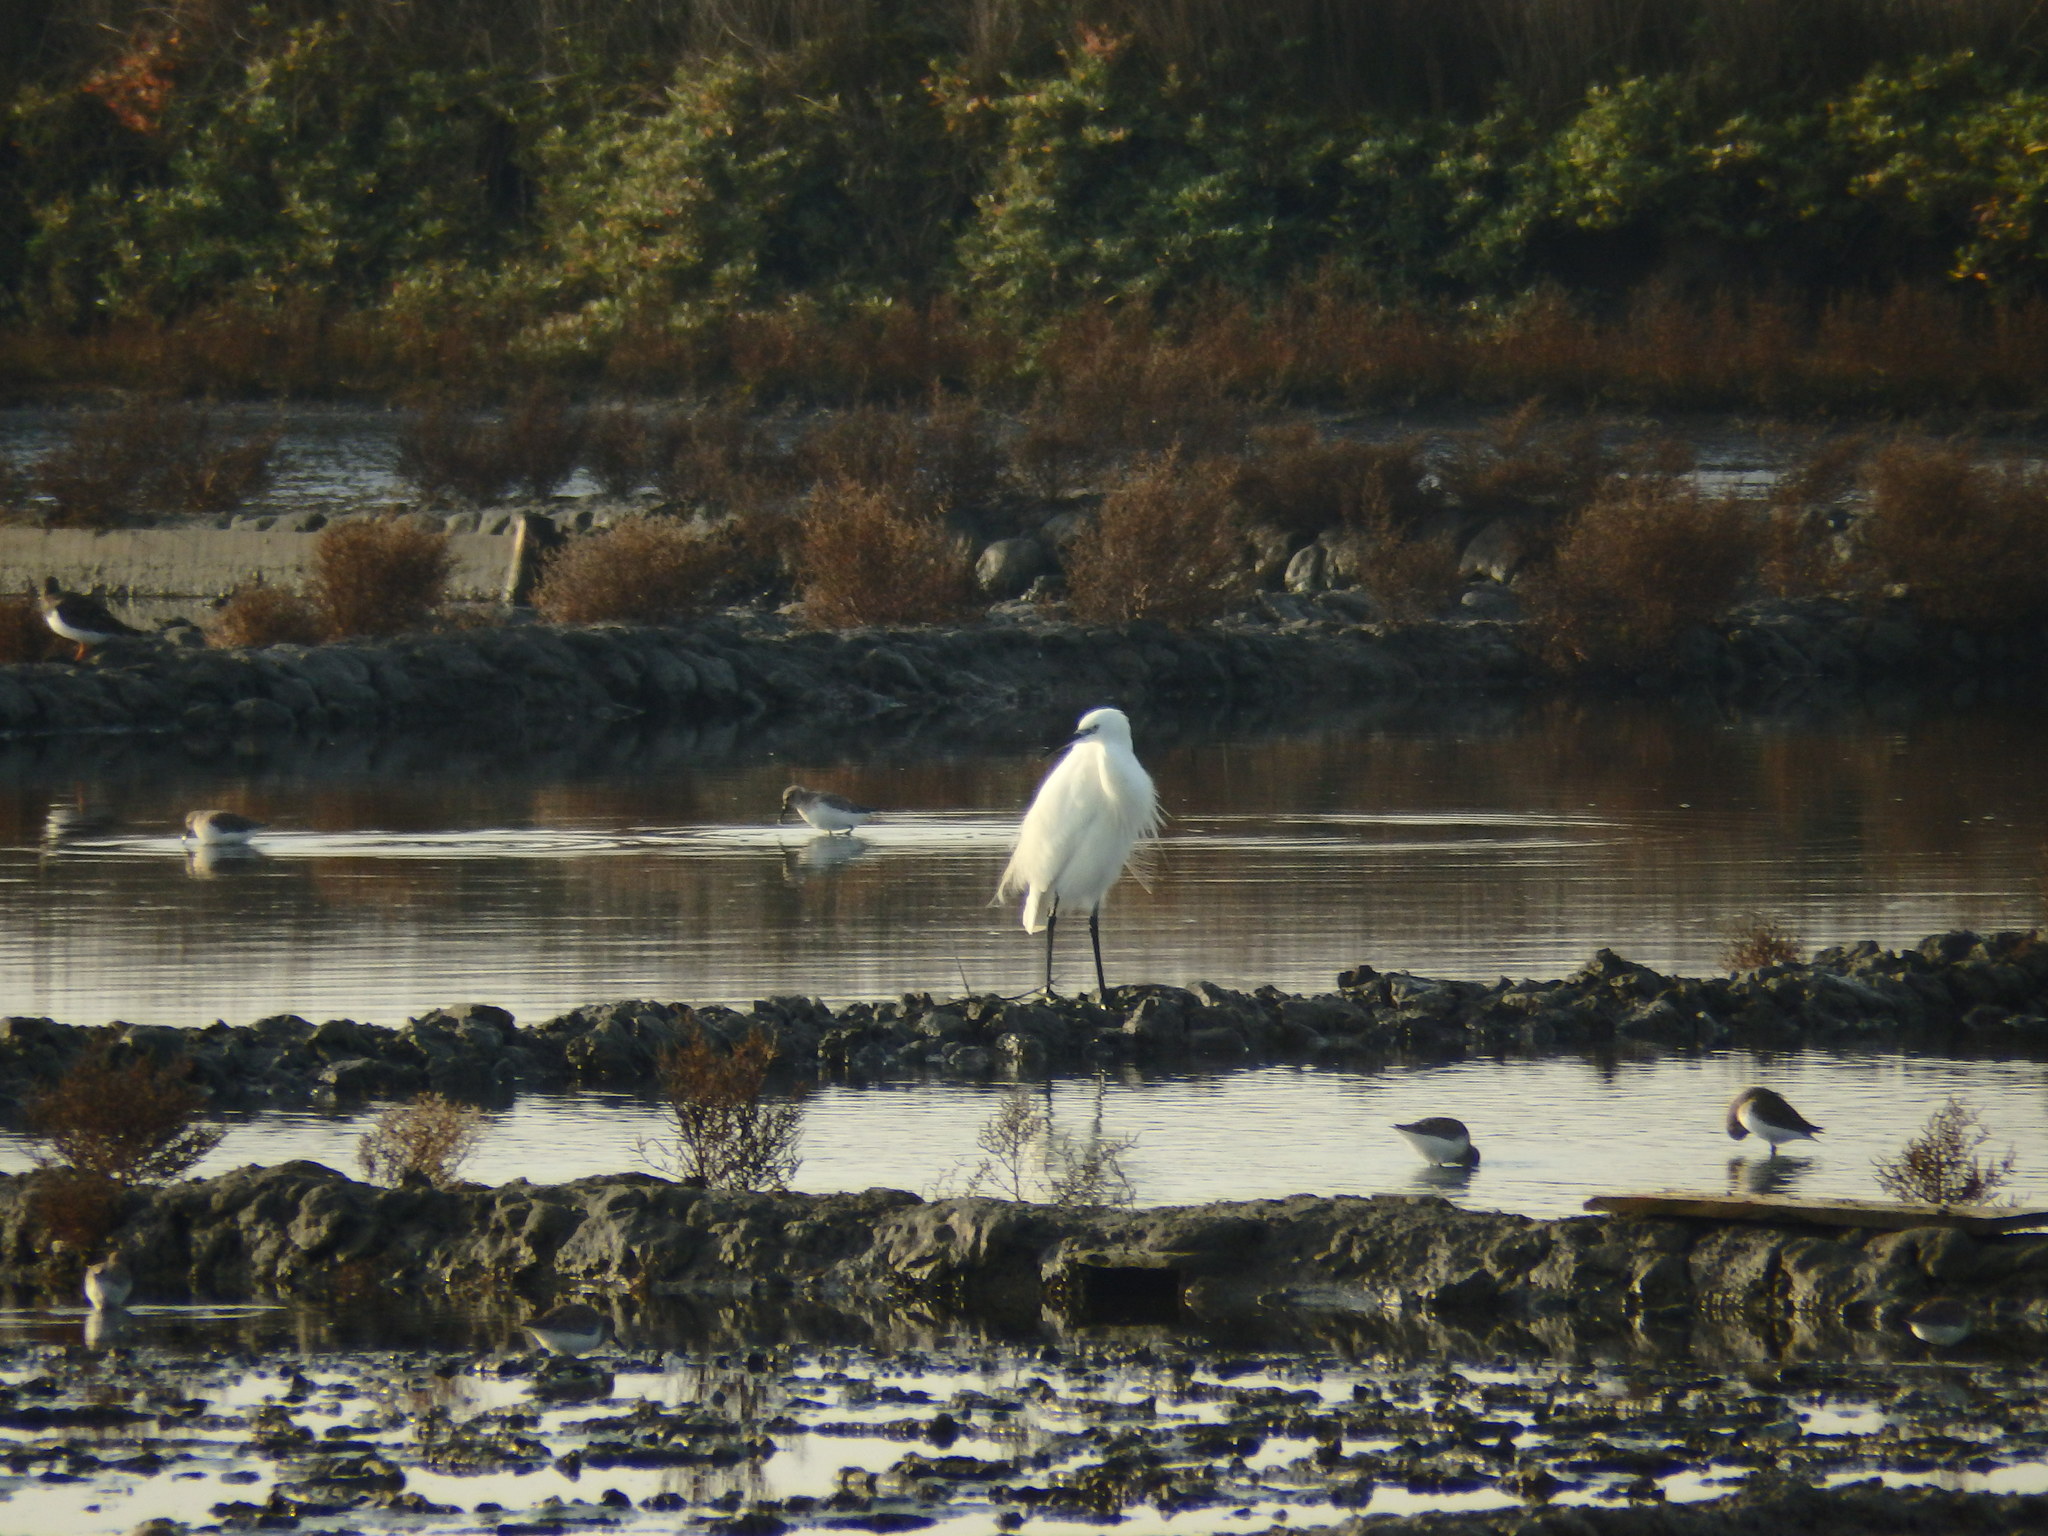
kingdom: Animalia
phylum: Chordata
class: Aves
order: Pelecaniformes
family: Ardeidae
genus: Egretta
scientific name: Egretta garzetta
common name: Little egret
